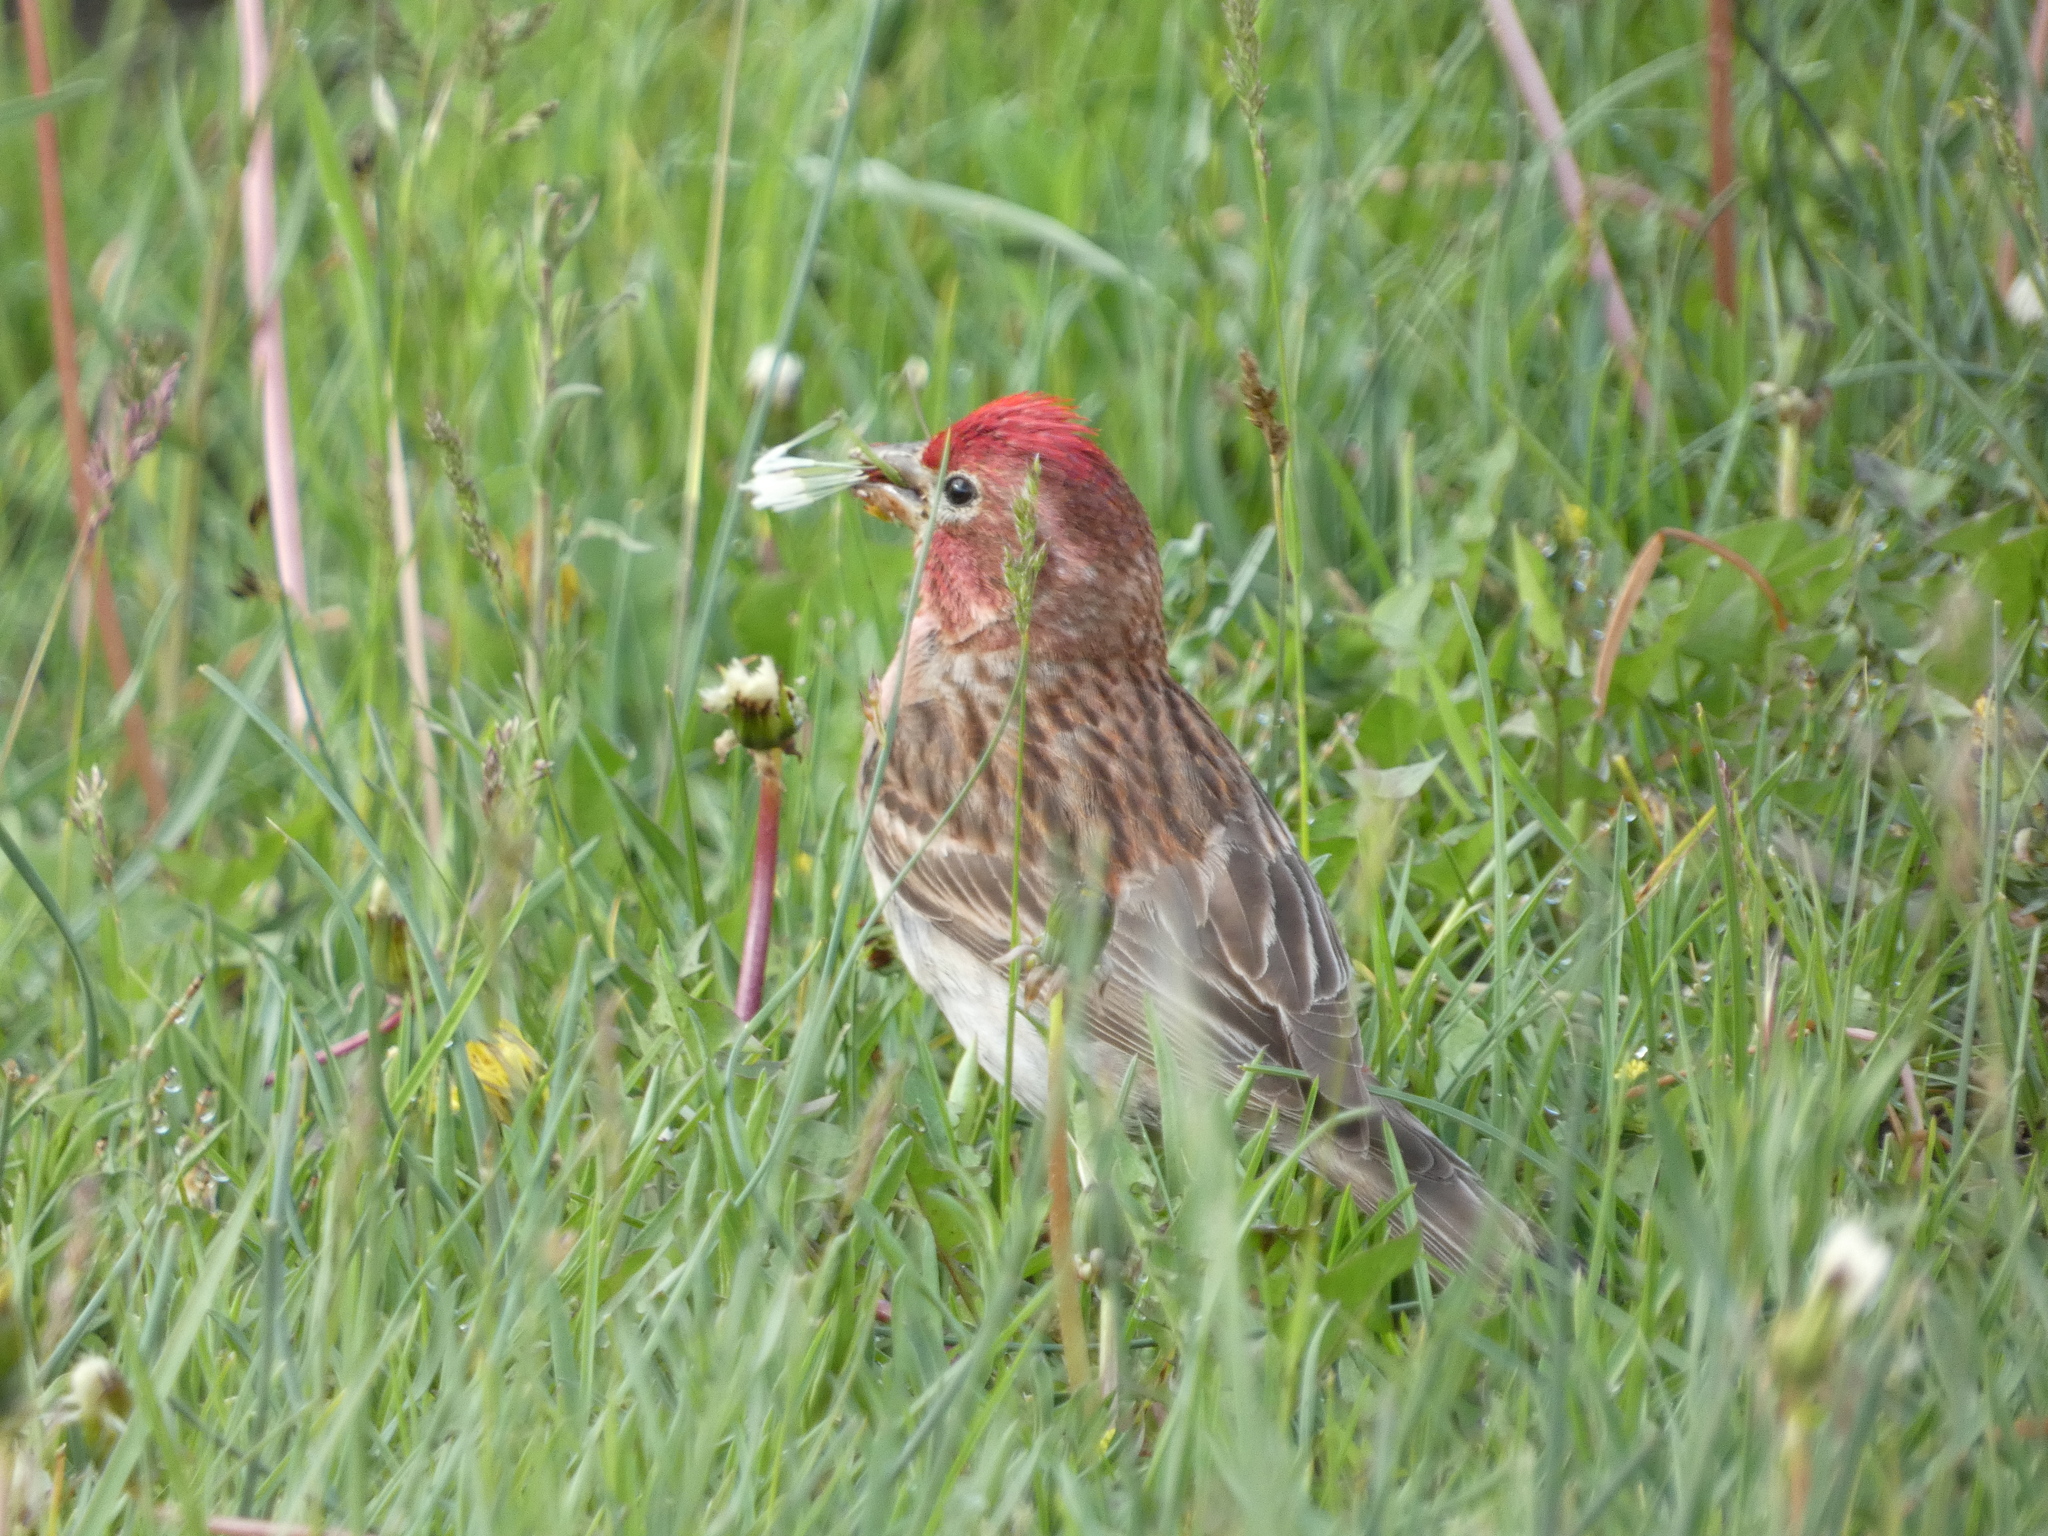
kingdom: Animalia
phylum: Chordata
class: Aves
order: Passeriformes
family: Fringillidae
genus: Haemorhous
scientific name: Haemorhous cassinii
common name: Cassin's finch
